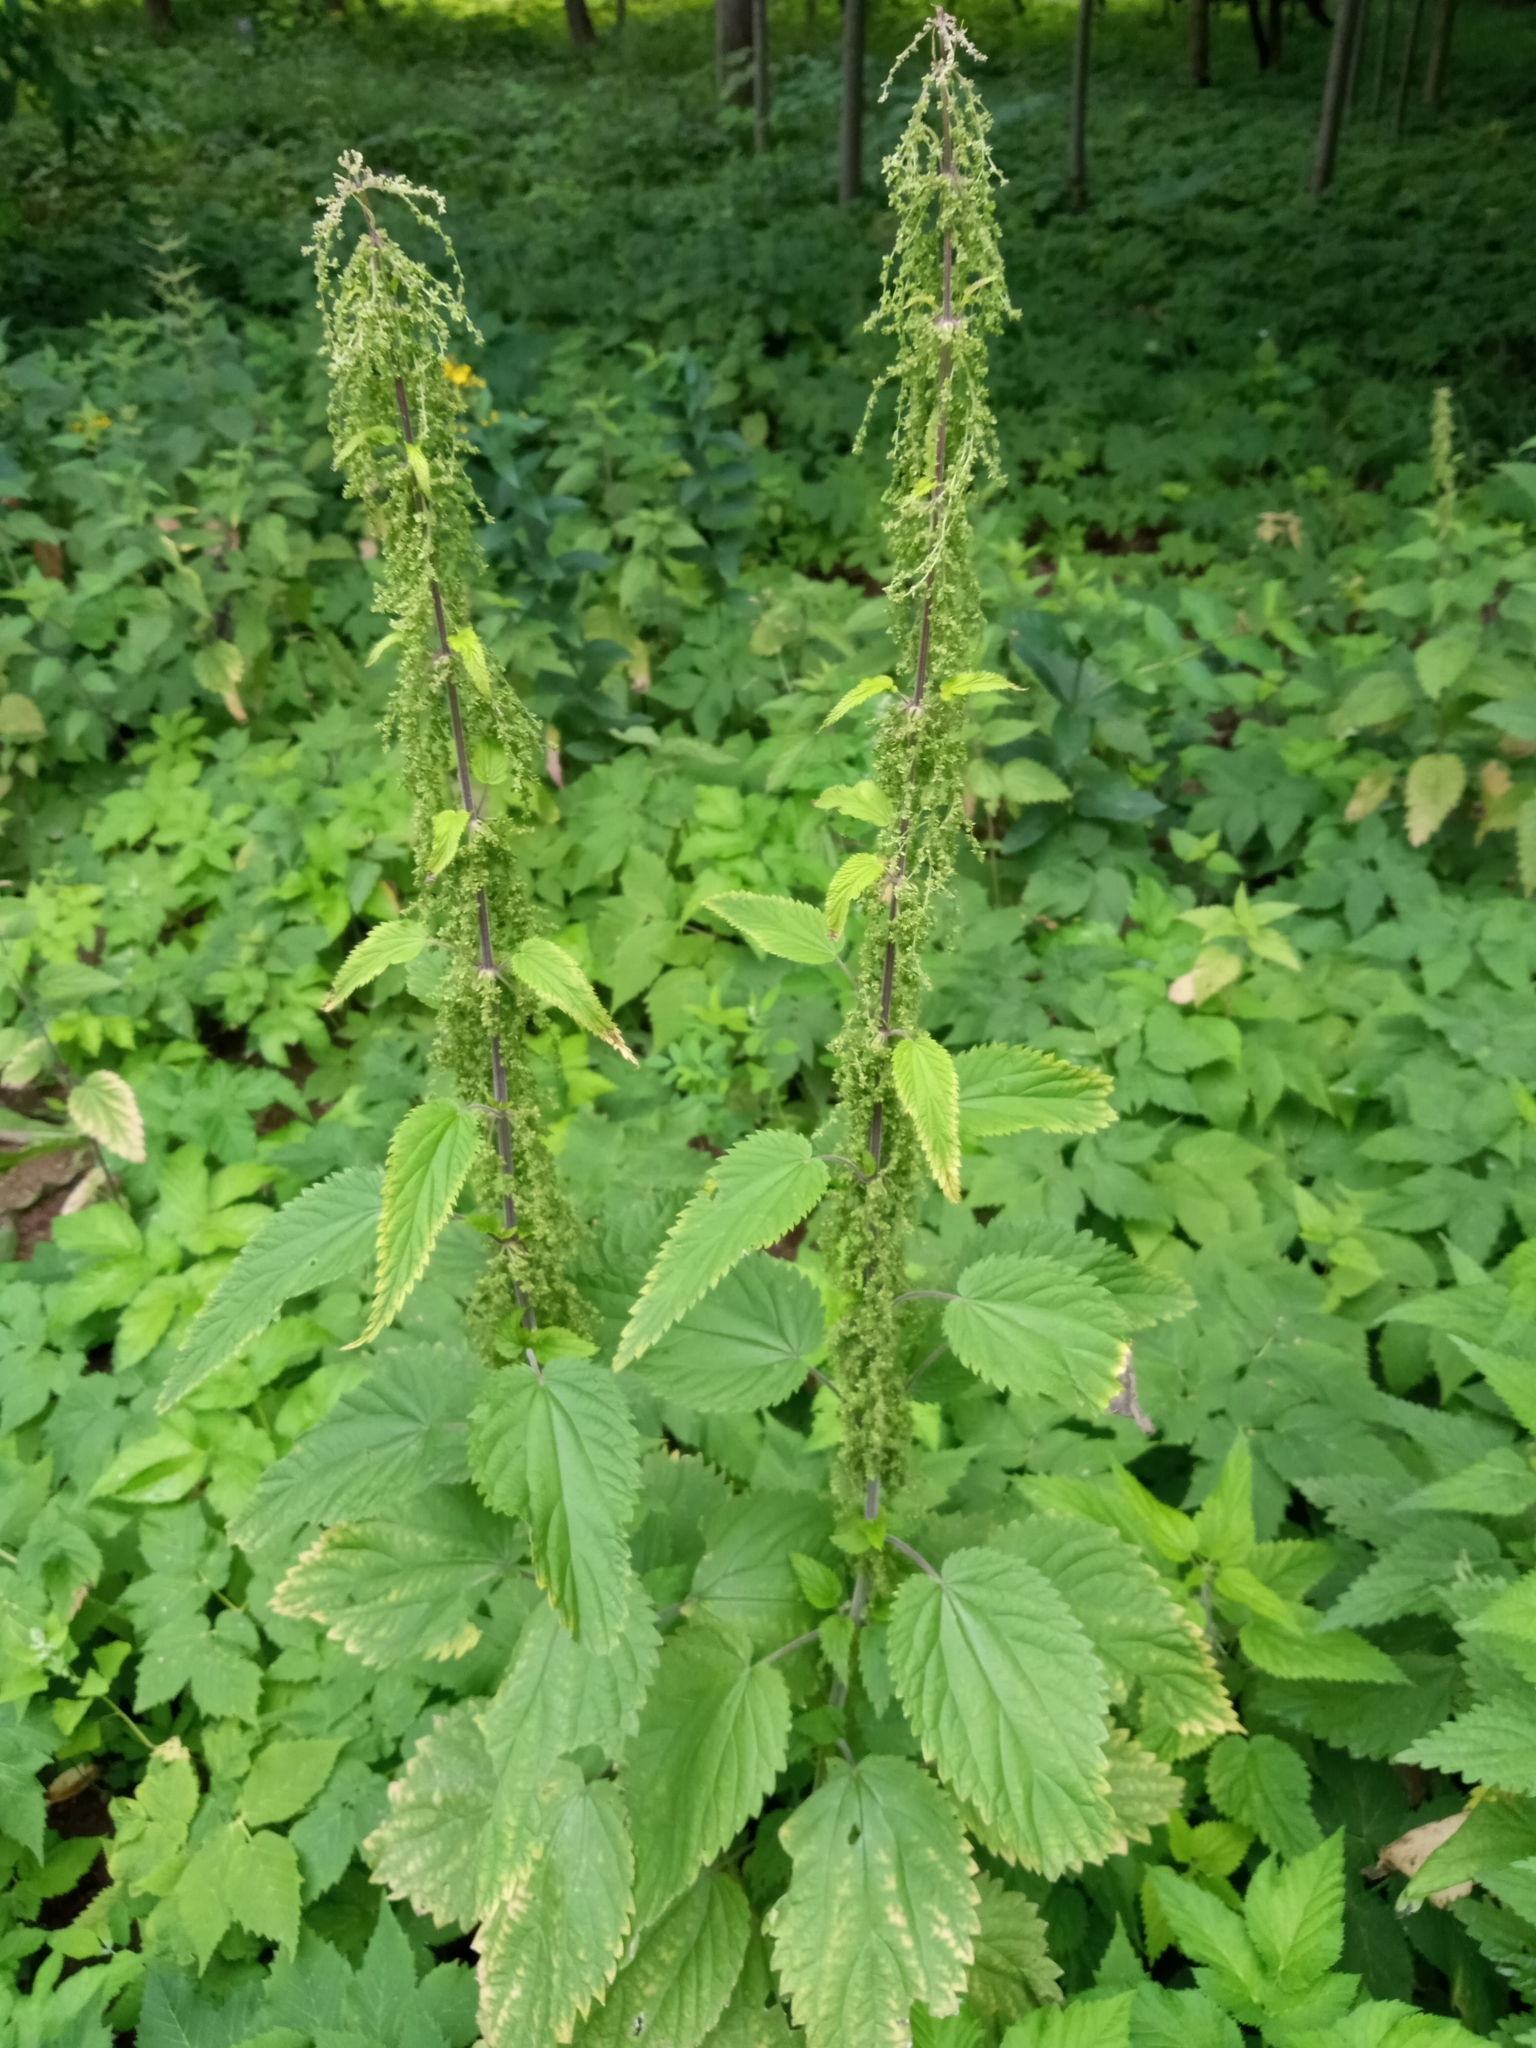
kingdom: Plantae
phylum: Tracheophyta
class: Magnoliopsida
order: Rosales
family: Urticaceae
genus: Urtica
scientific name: Urtica dioica
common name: Common nettle
